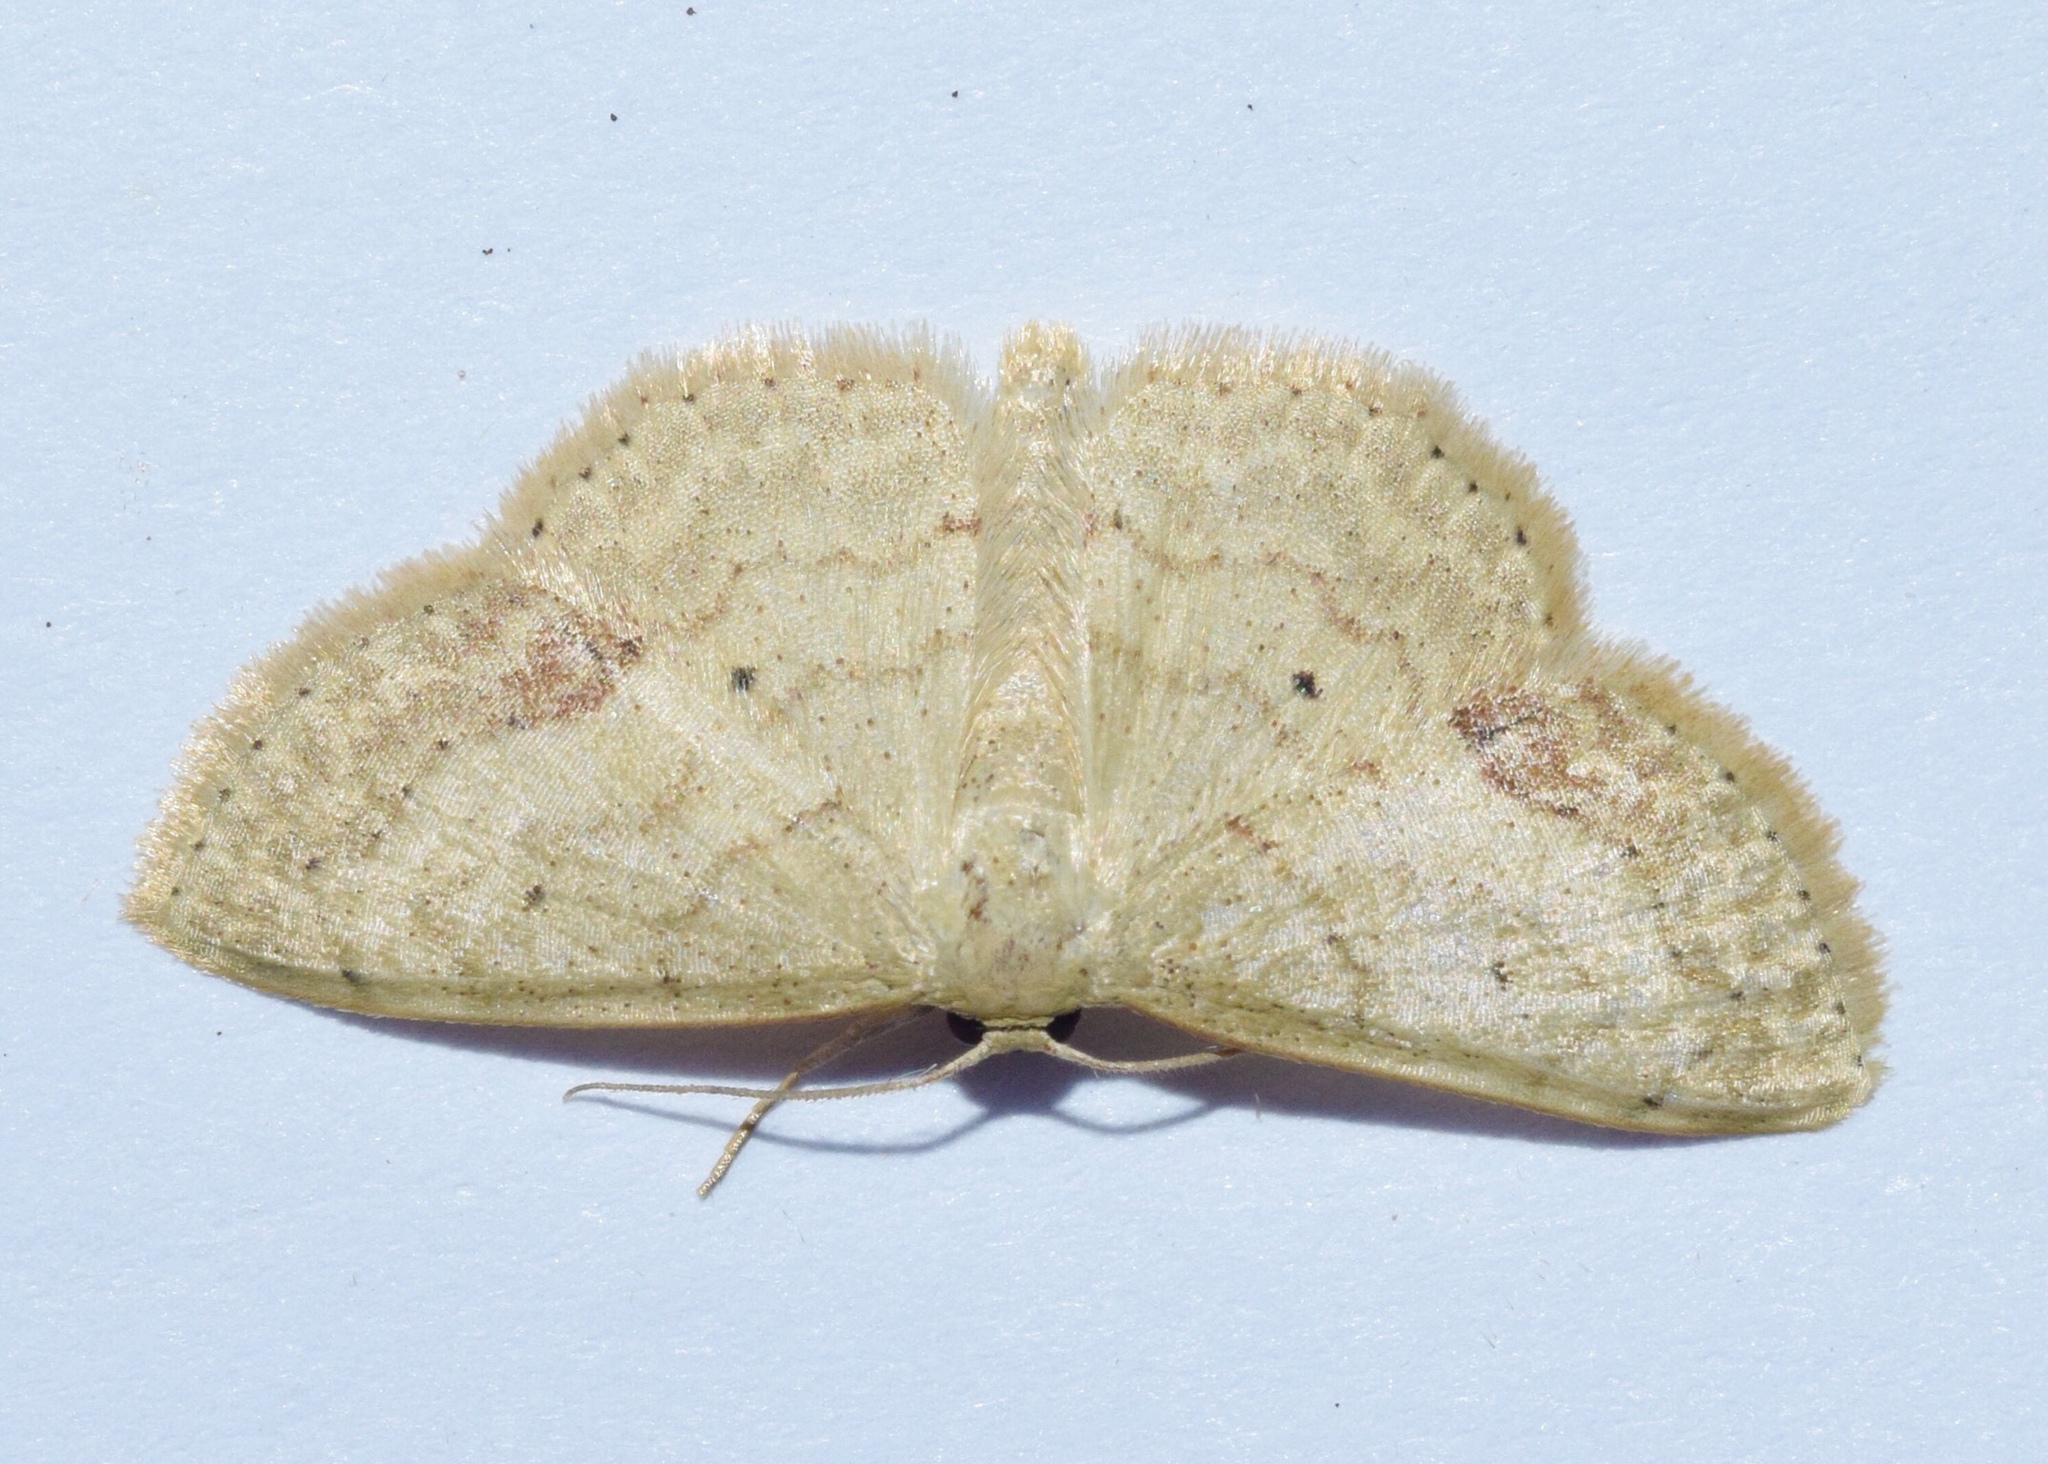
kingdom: Animalia
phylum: Arthropoda
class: Insecta
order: Lepidoptera
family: Geometridae
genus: Scopula
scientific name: Scopula internata
